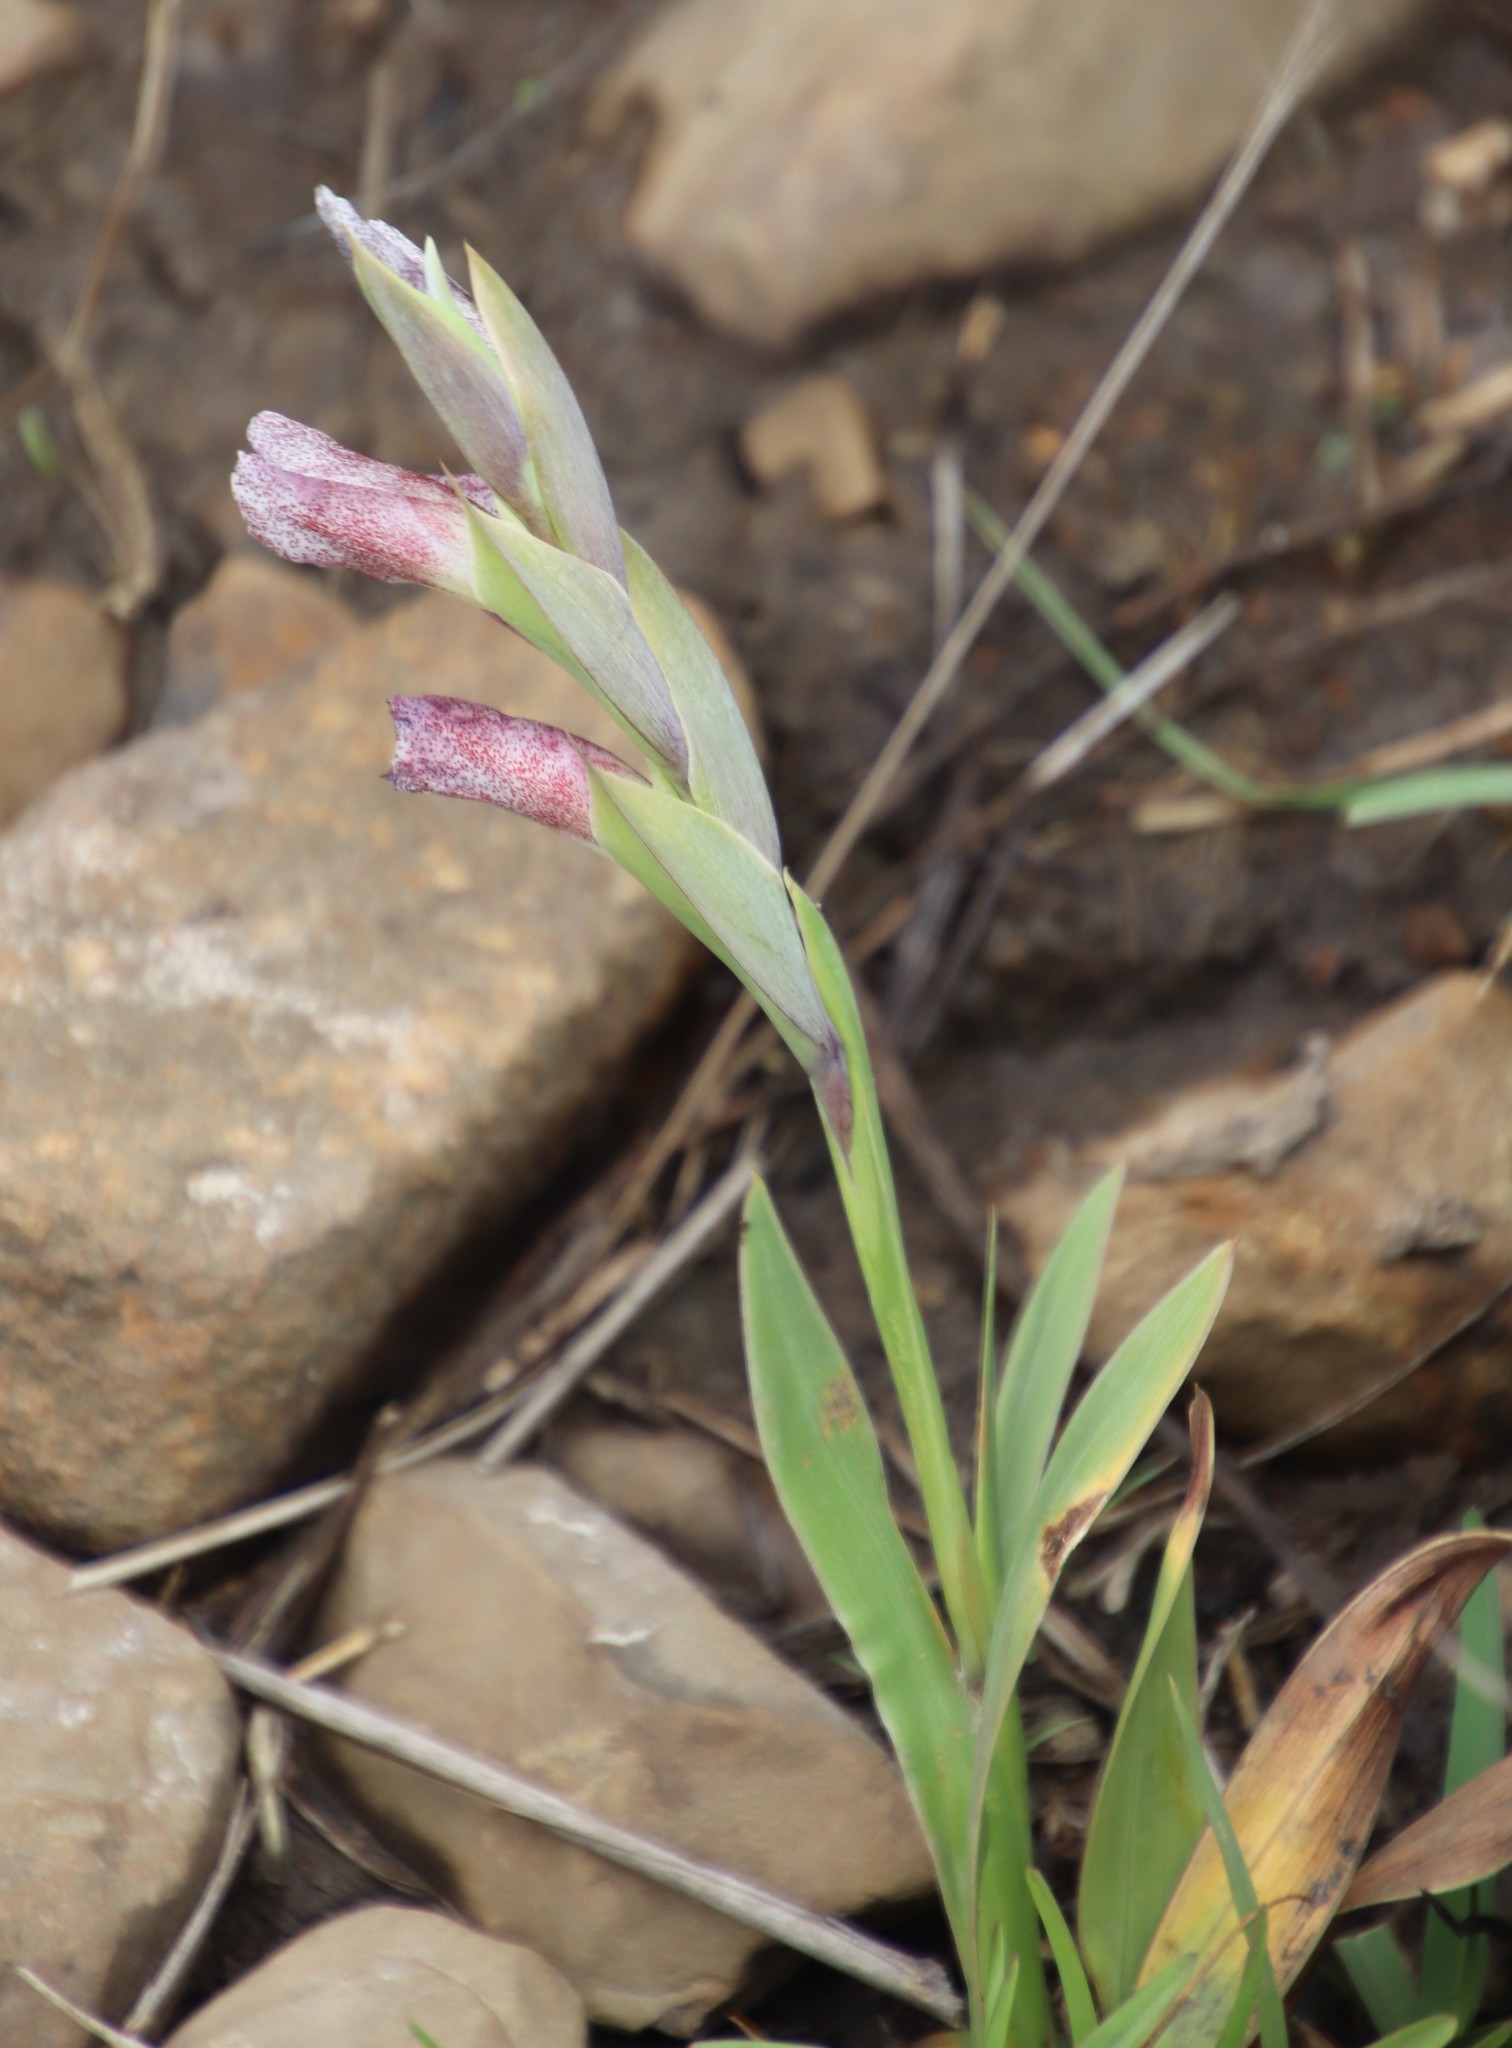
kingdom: Plantae
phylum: Tracheophyta
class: Liliopsida
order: Asparagales
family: Iridaceae
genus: Gladiolus
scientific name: Gladiolus ecklonii
